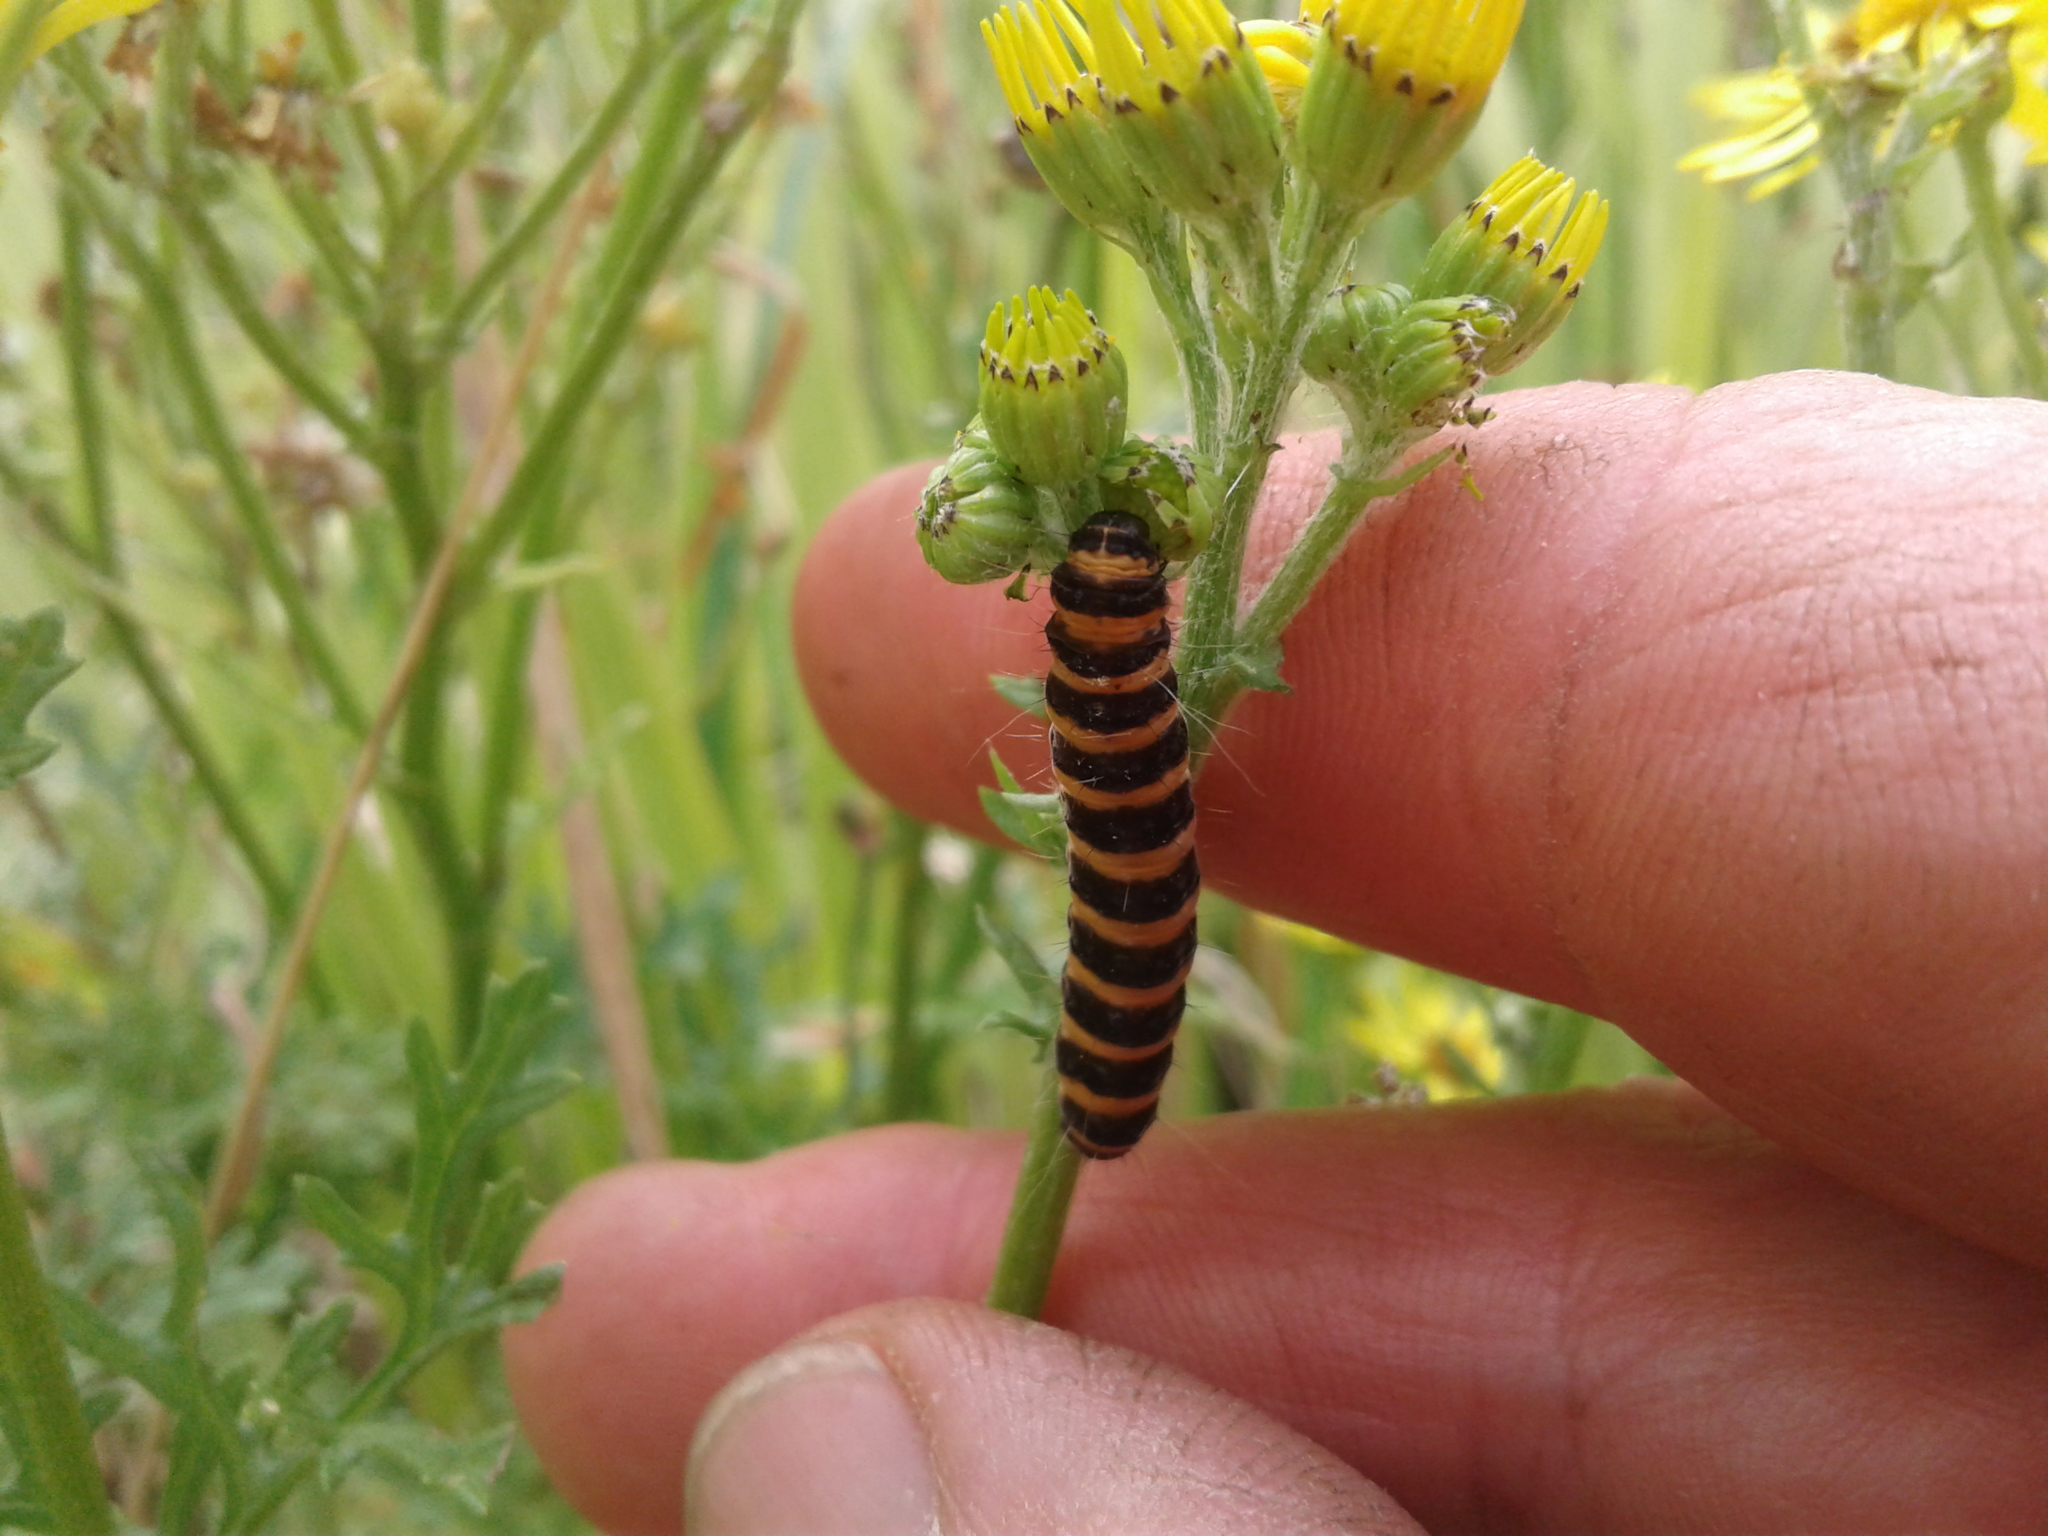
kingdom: Animalia
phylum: Arthropoda
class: Insecta
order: Lepidoptera
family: Erebidae
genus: Tyria
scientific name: Tyria jacobaeae
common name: Cinnabar
